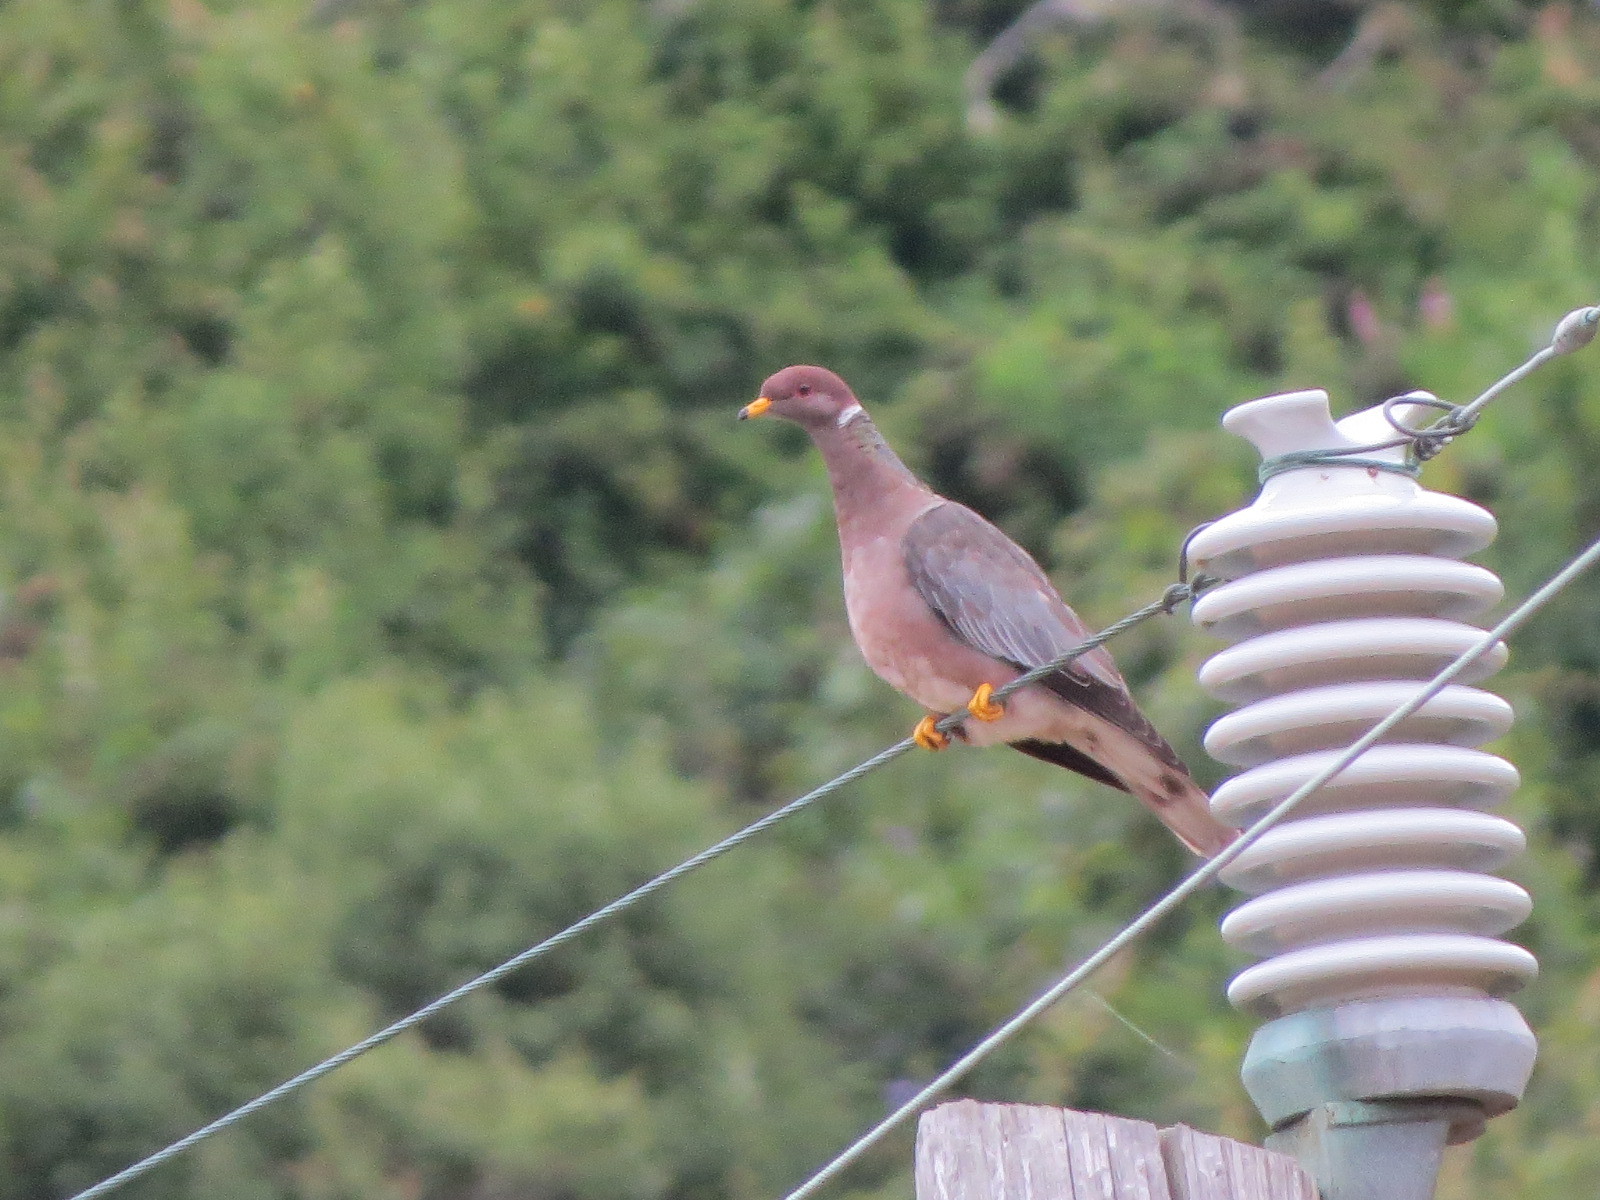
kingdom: Animalia
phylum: Chordata
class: Aves
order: Columbiformes
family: Columbidae
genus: Patagioenas
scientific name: Patagioenas fasciata
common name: Band-tailed pigeon
